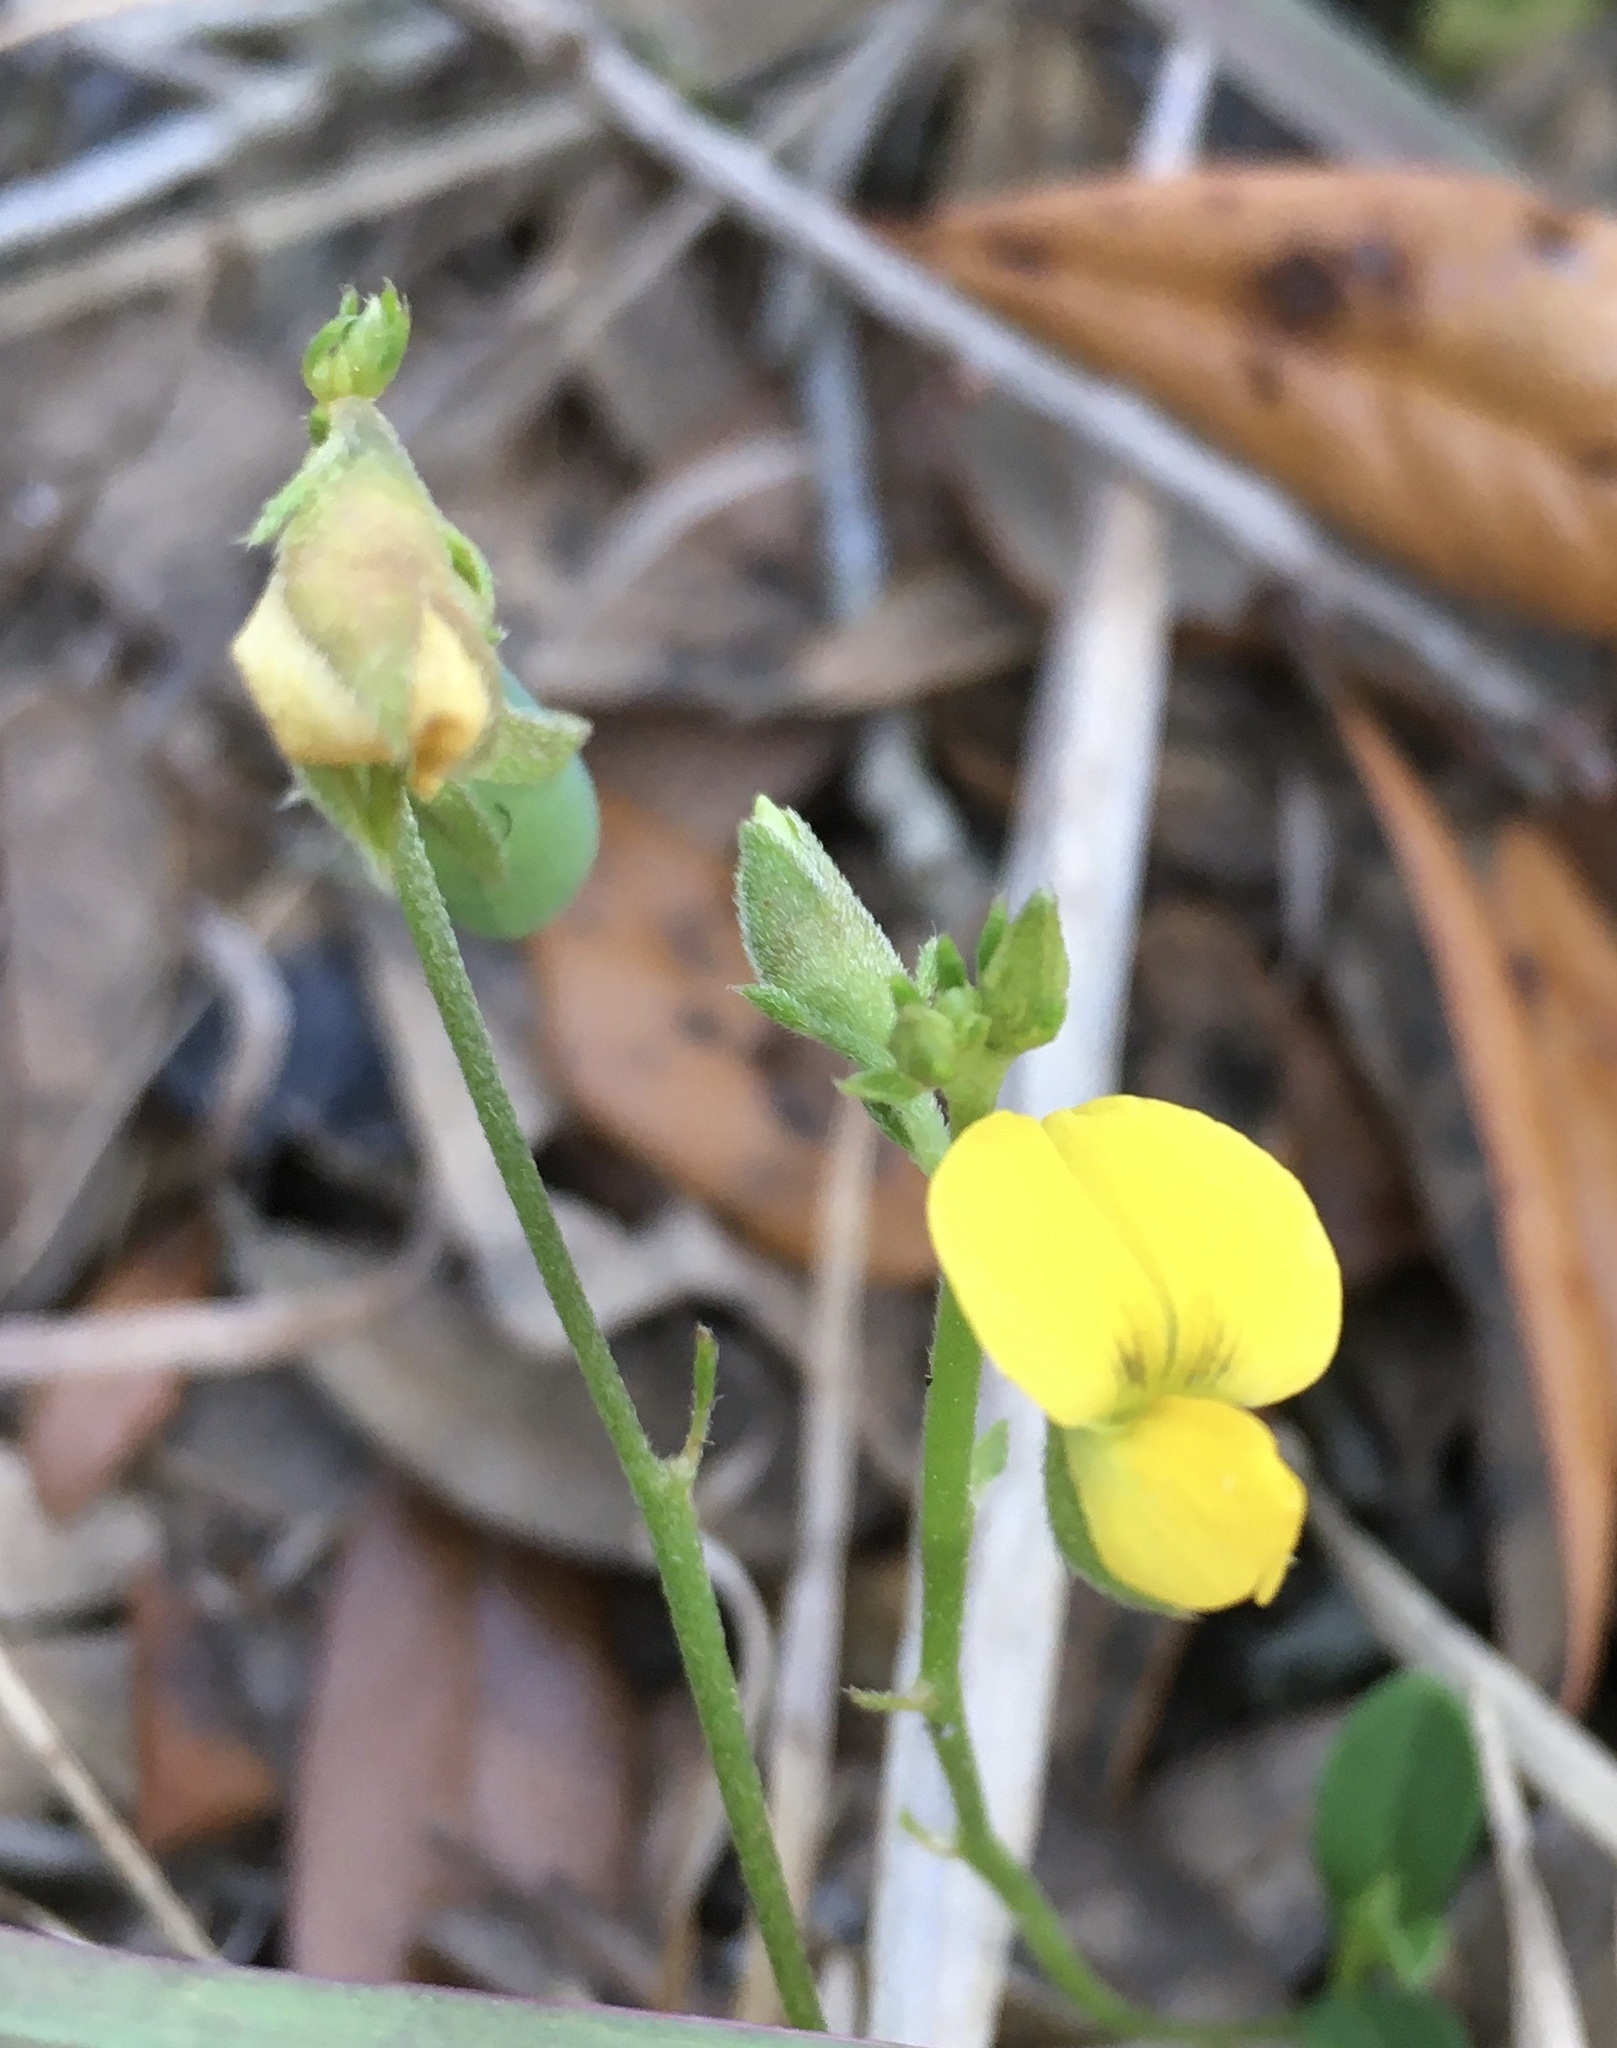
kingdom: Plantae
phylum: Tracheophyta
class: Magnoliopsida
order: Fabales
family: Fabaceae
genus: Crotalaria
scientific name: Crotalaria rotundifolia
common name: Prostrate rattlebox
